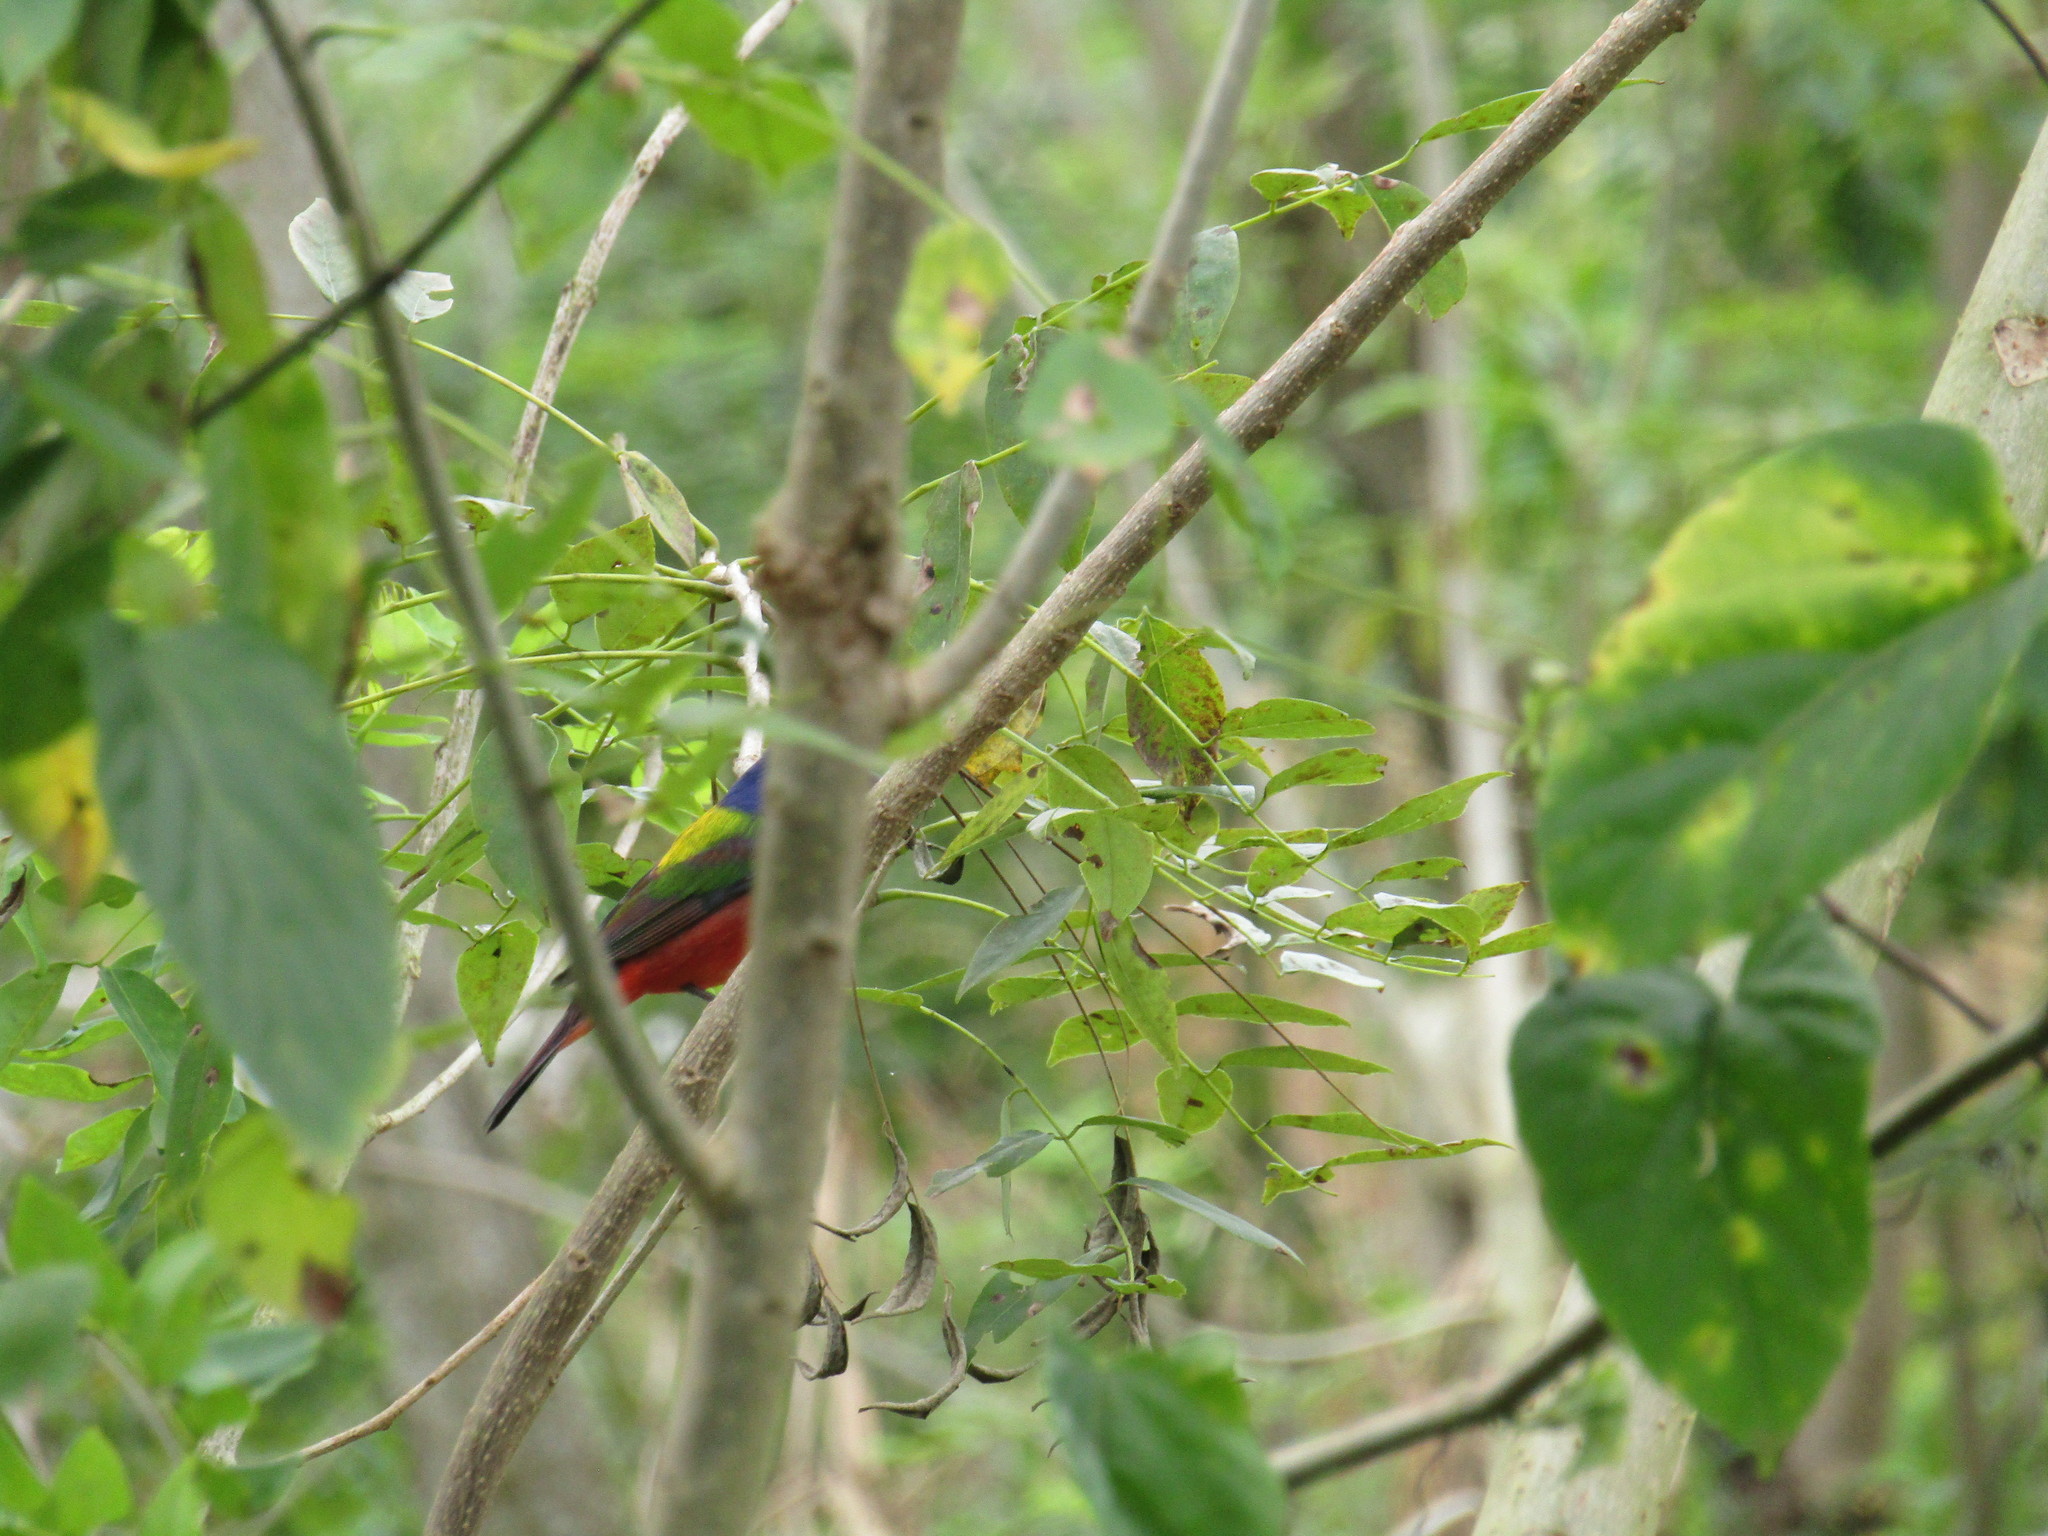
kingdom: Animalia
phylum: Chordata
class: Aves
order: Passeriformes
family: Cardinalidae
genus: Passerina
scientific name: Passerina ciris
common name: Painted bunting
